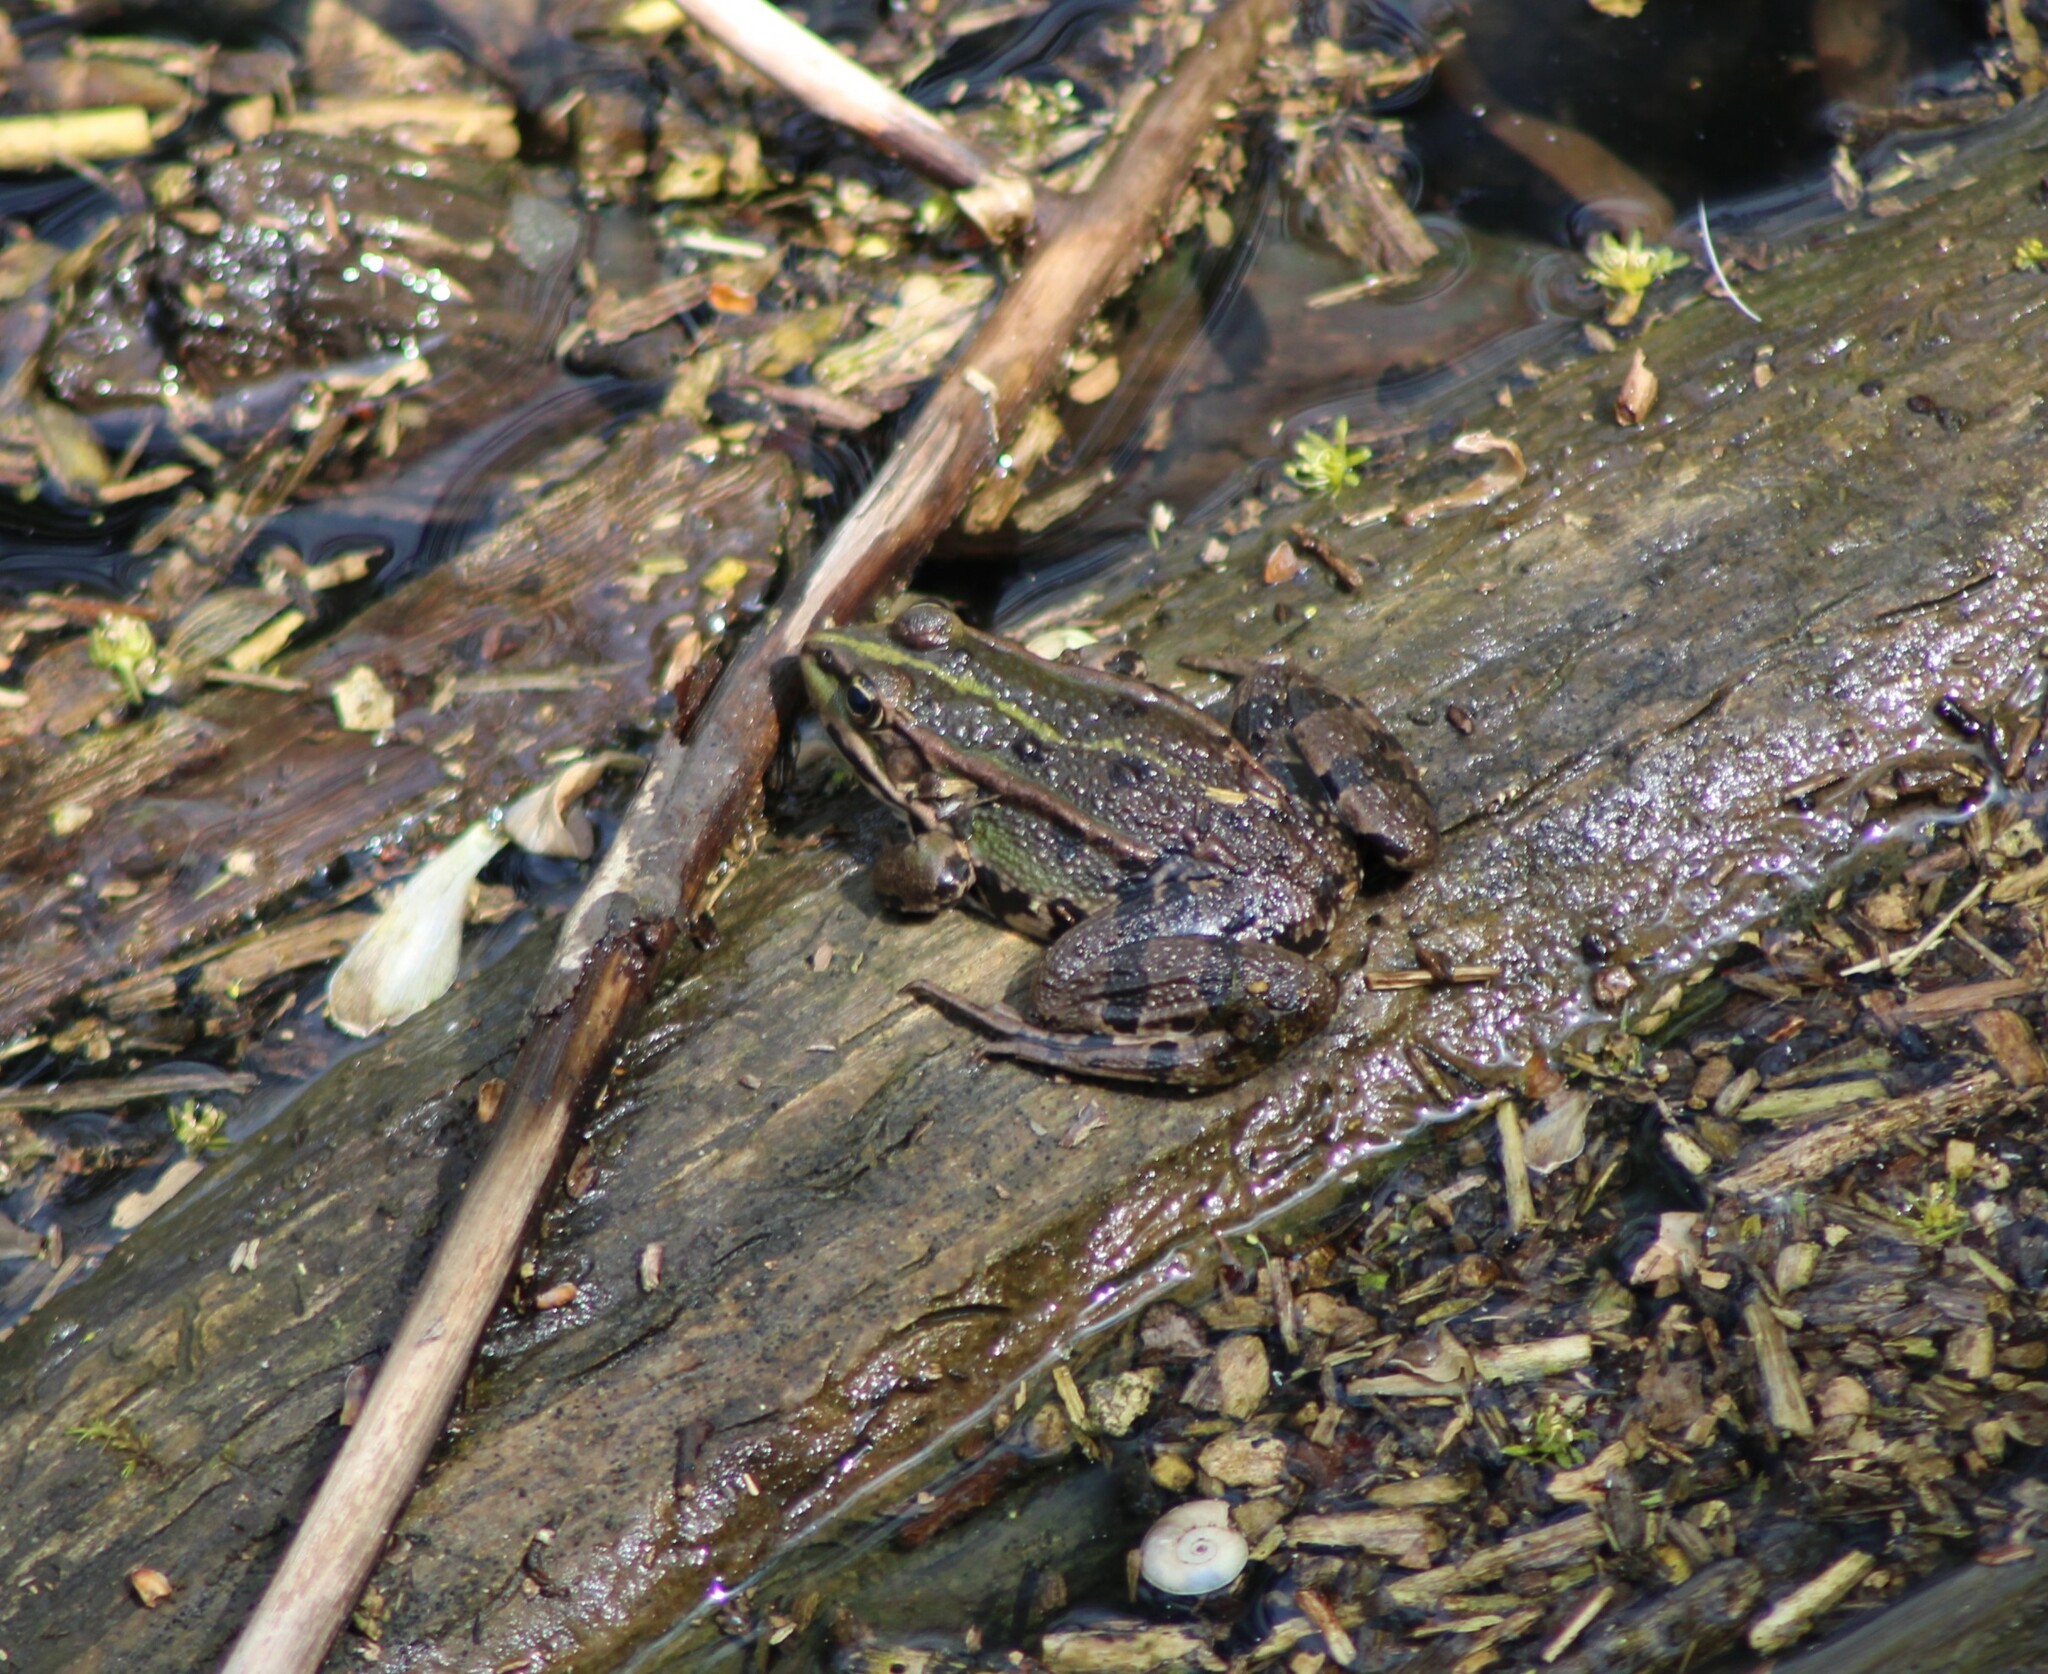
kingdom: Animalia
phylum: Chordata
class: Amphibia
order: Anura
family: Ranidae
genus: Pelophylax
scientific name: Pelophylax
